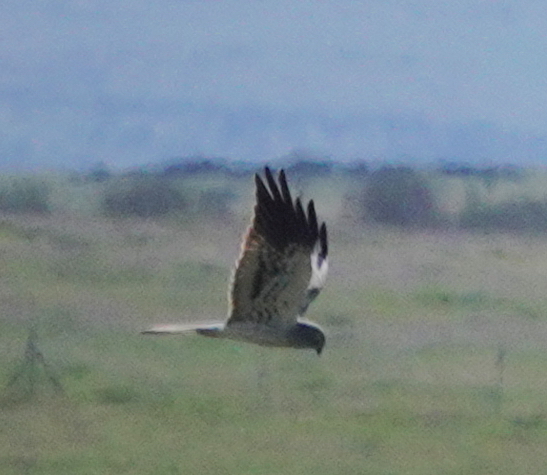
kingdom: Animalia
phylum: Chordata
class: Aves
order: Accipitriformes
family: Accipitridae
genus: Circus
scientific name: Circus pygargus
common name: Montagu's harrier
